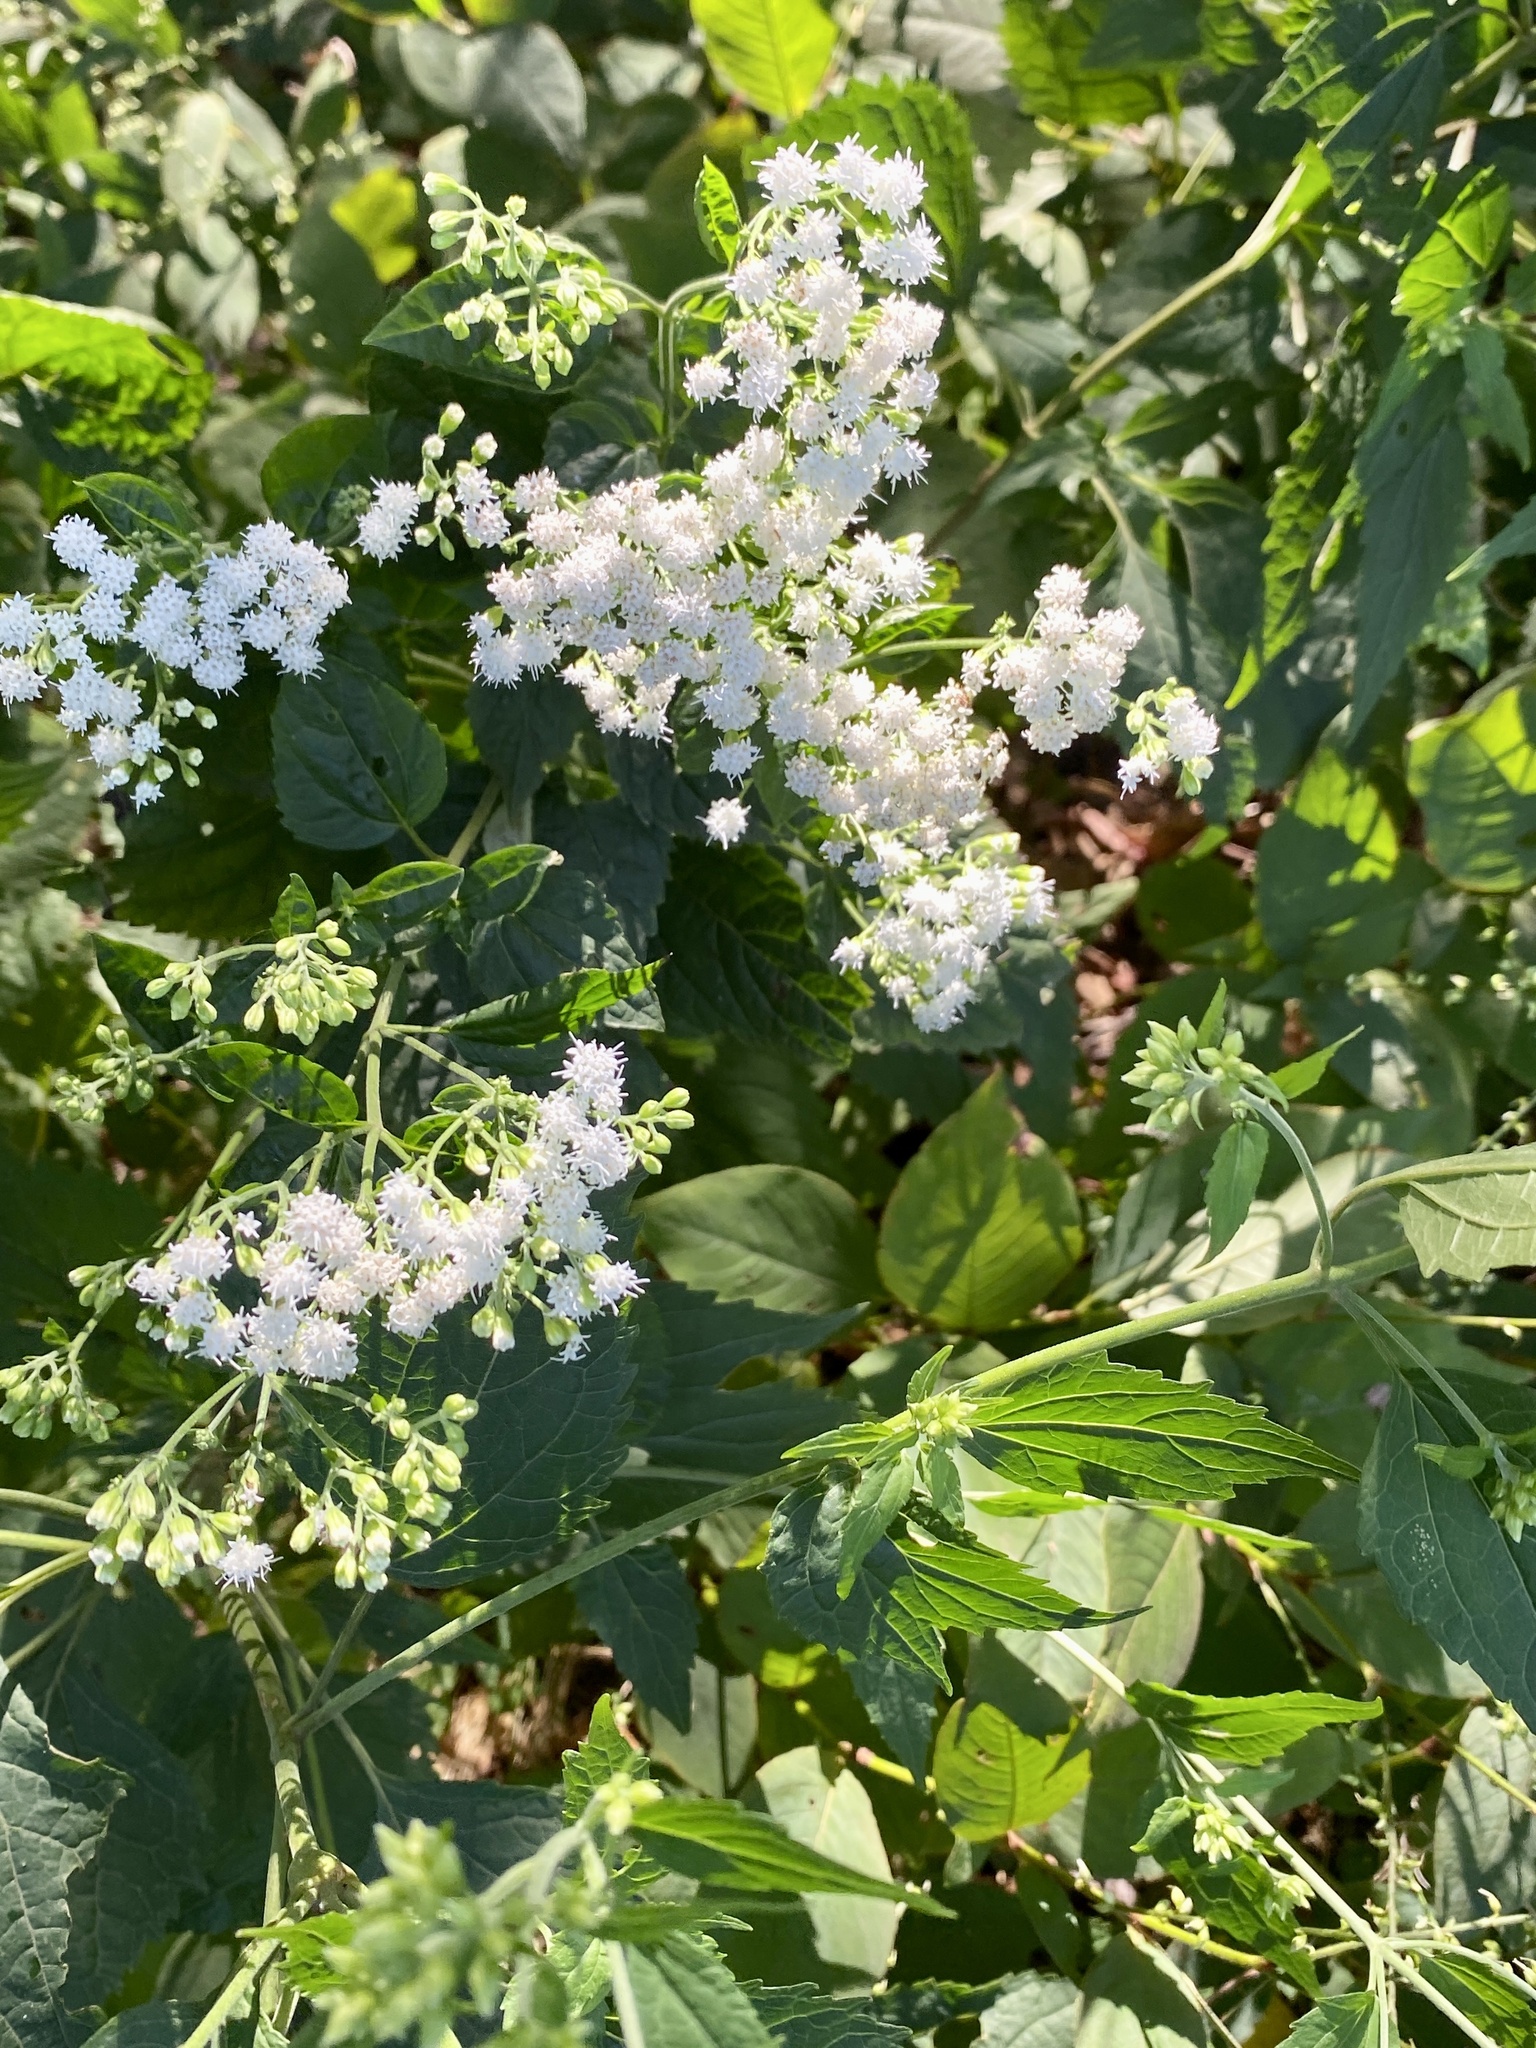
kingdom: Plantae
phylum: Tracheophyta
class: Magnoliopsida
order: Asterales
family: Asteraceae
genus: Ageratina
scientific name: Ageratina altissima
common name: White snakeroot
